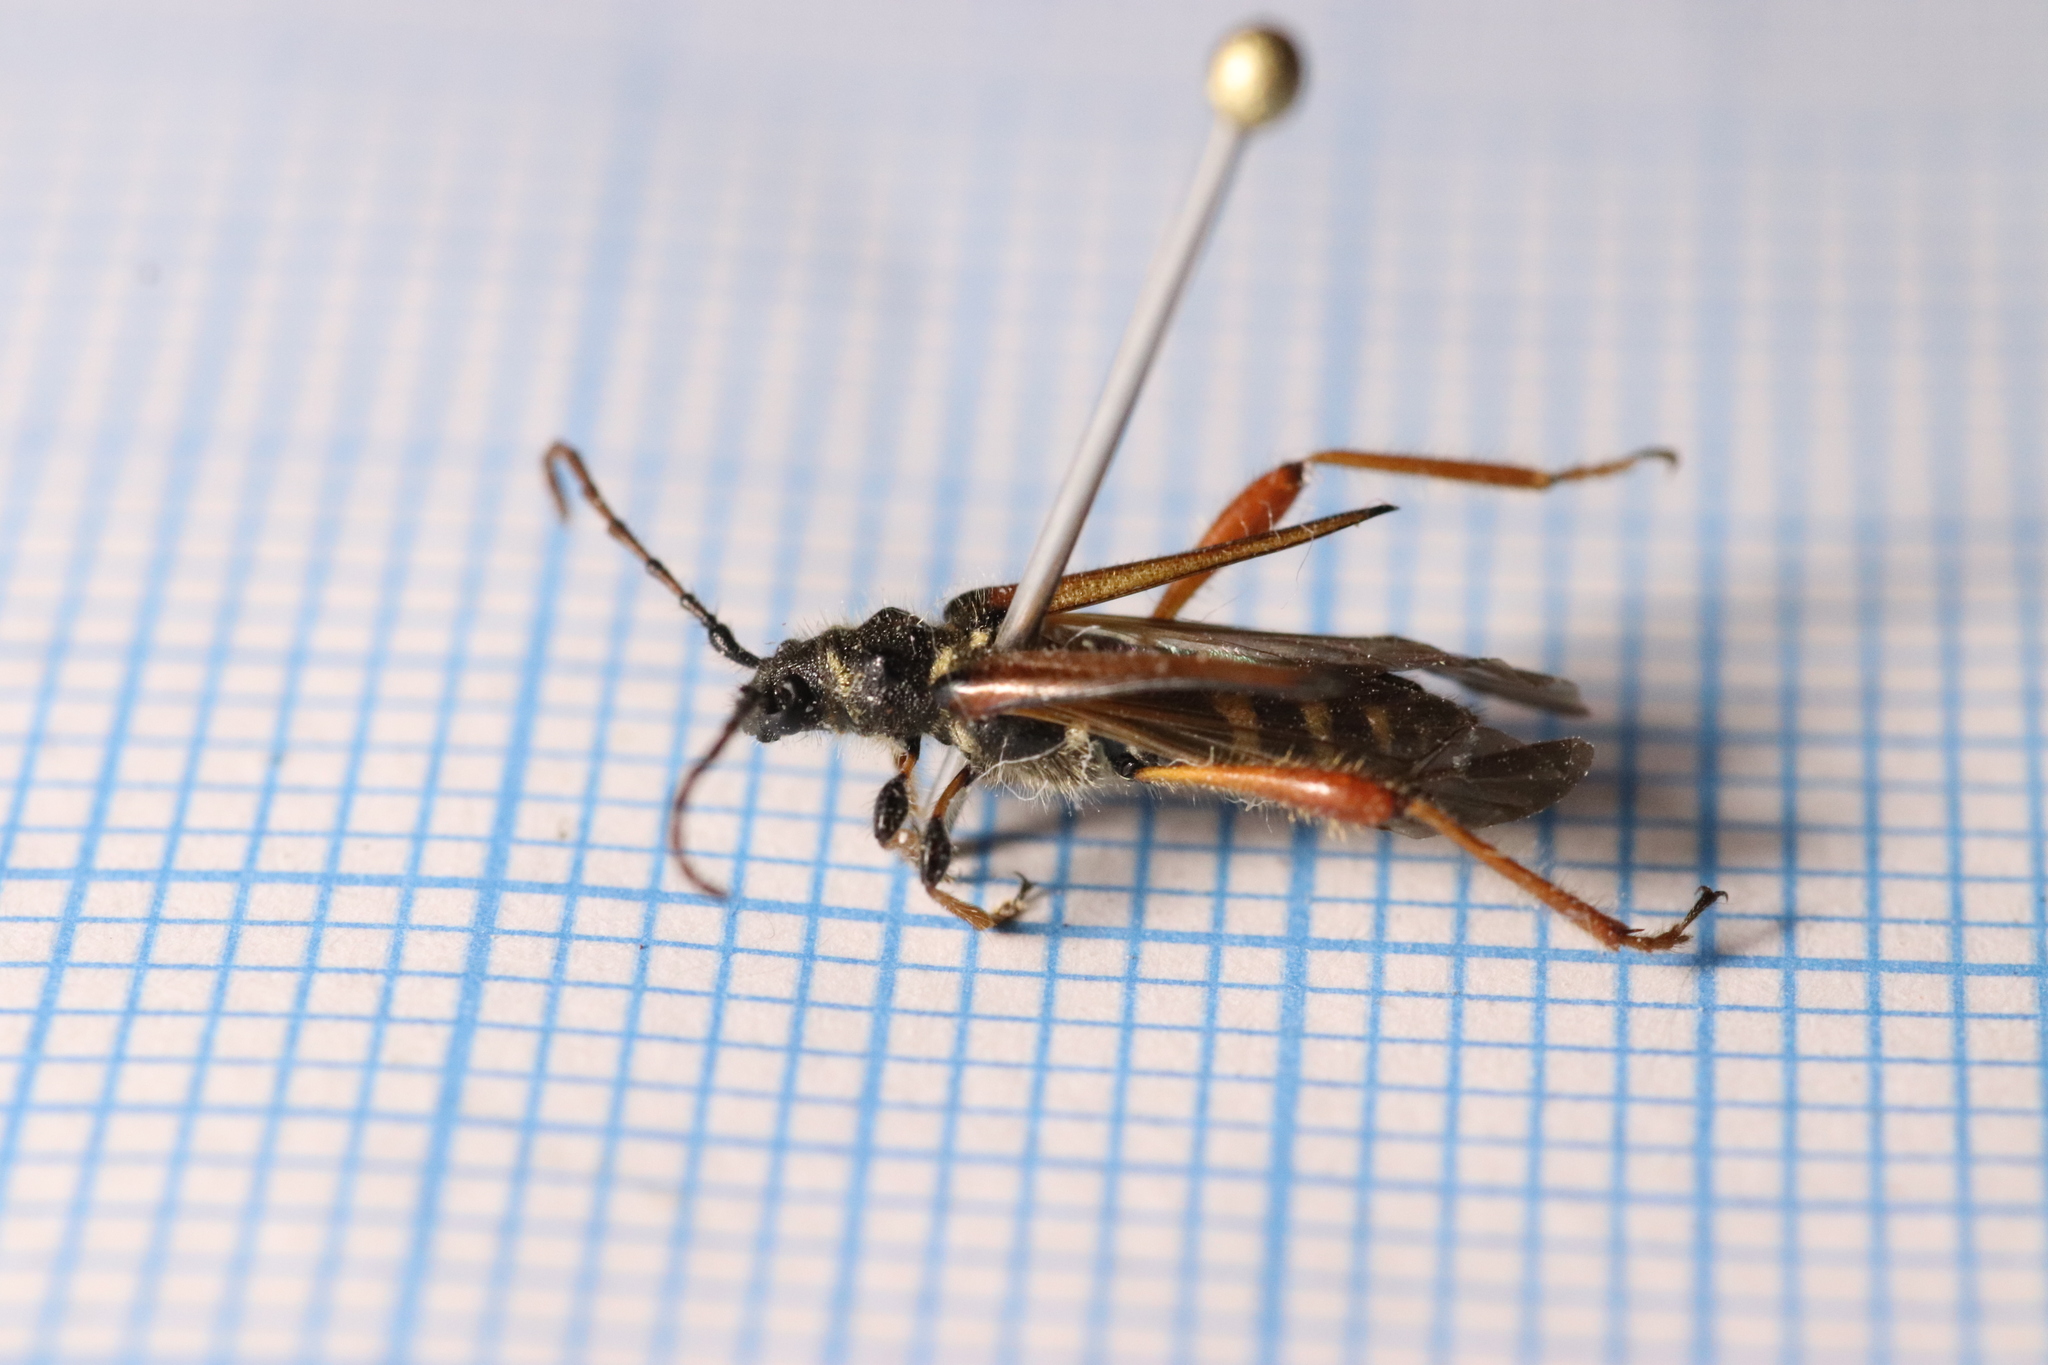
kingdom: Animalia
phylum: Arthropoda
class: Insecta
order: Coleoptera
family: Cerambycidae
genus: Stenopterus
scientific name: Stenopterus rufus
